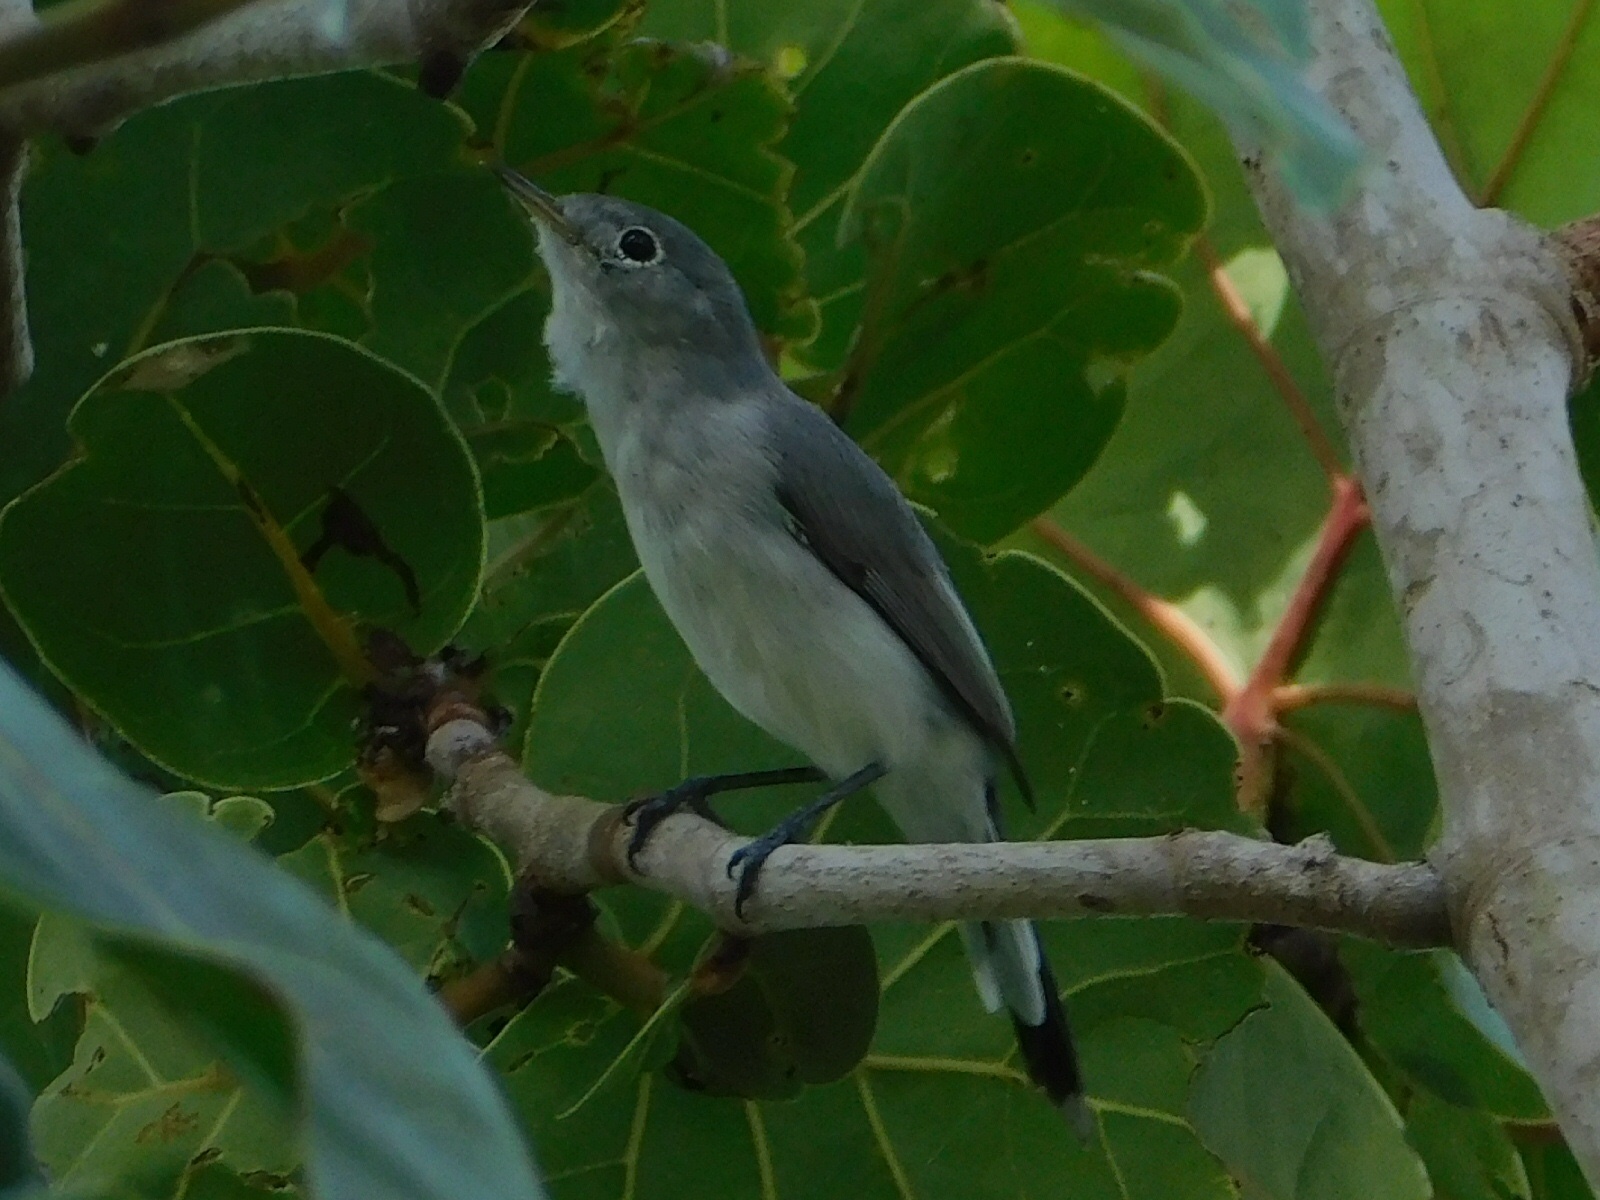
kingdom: Animalia
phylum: Chordata
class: Aves
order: Passeriformes
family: Polioptilidae
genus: Polioptila
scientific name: Polioptila caerulea
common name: Blue-gray gnatcatcher
